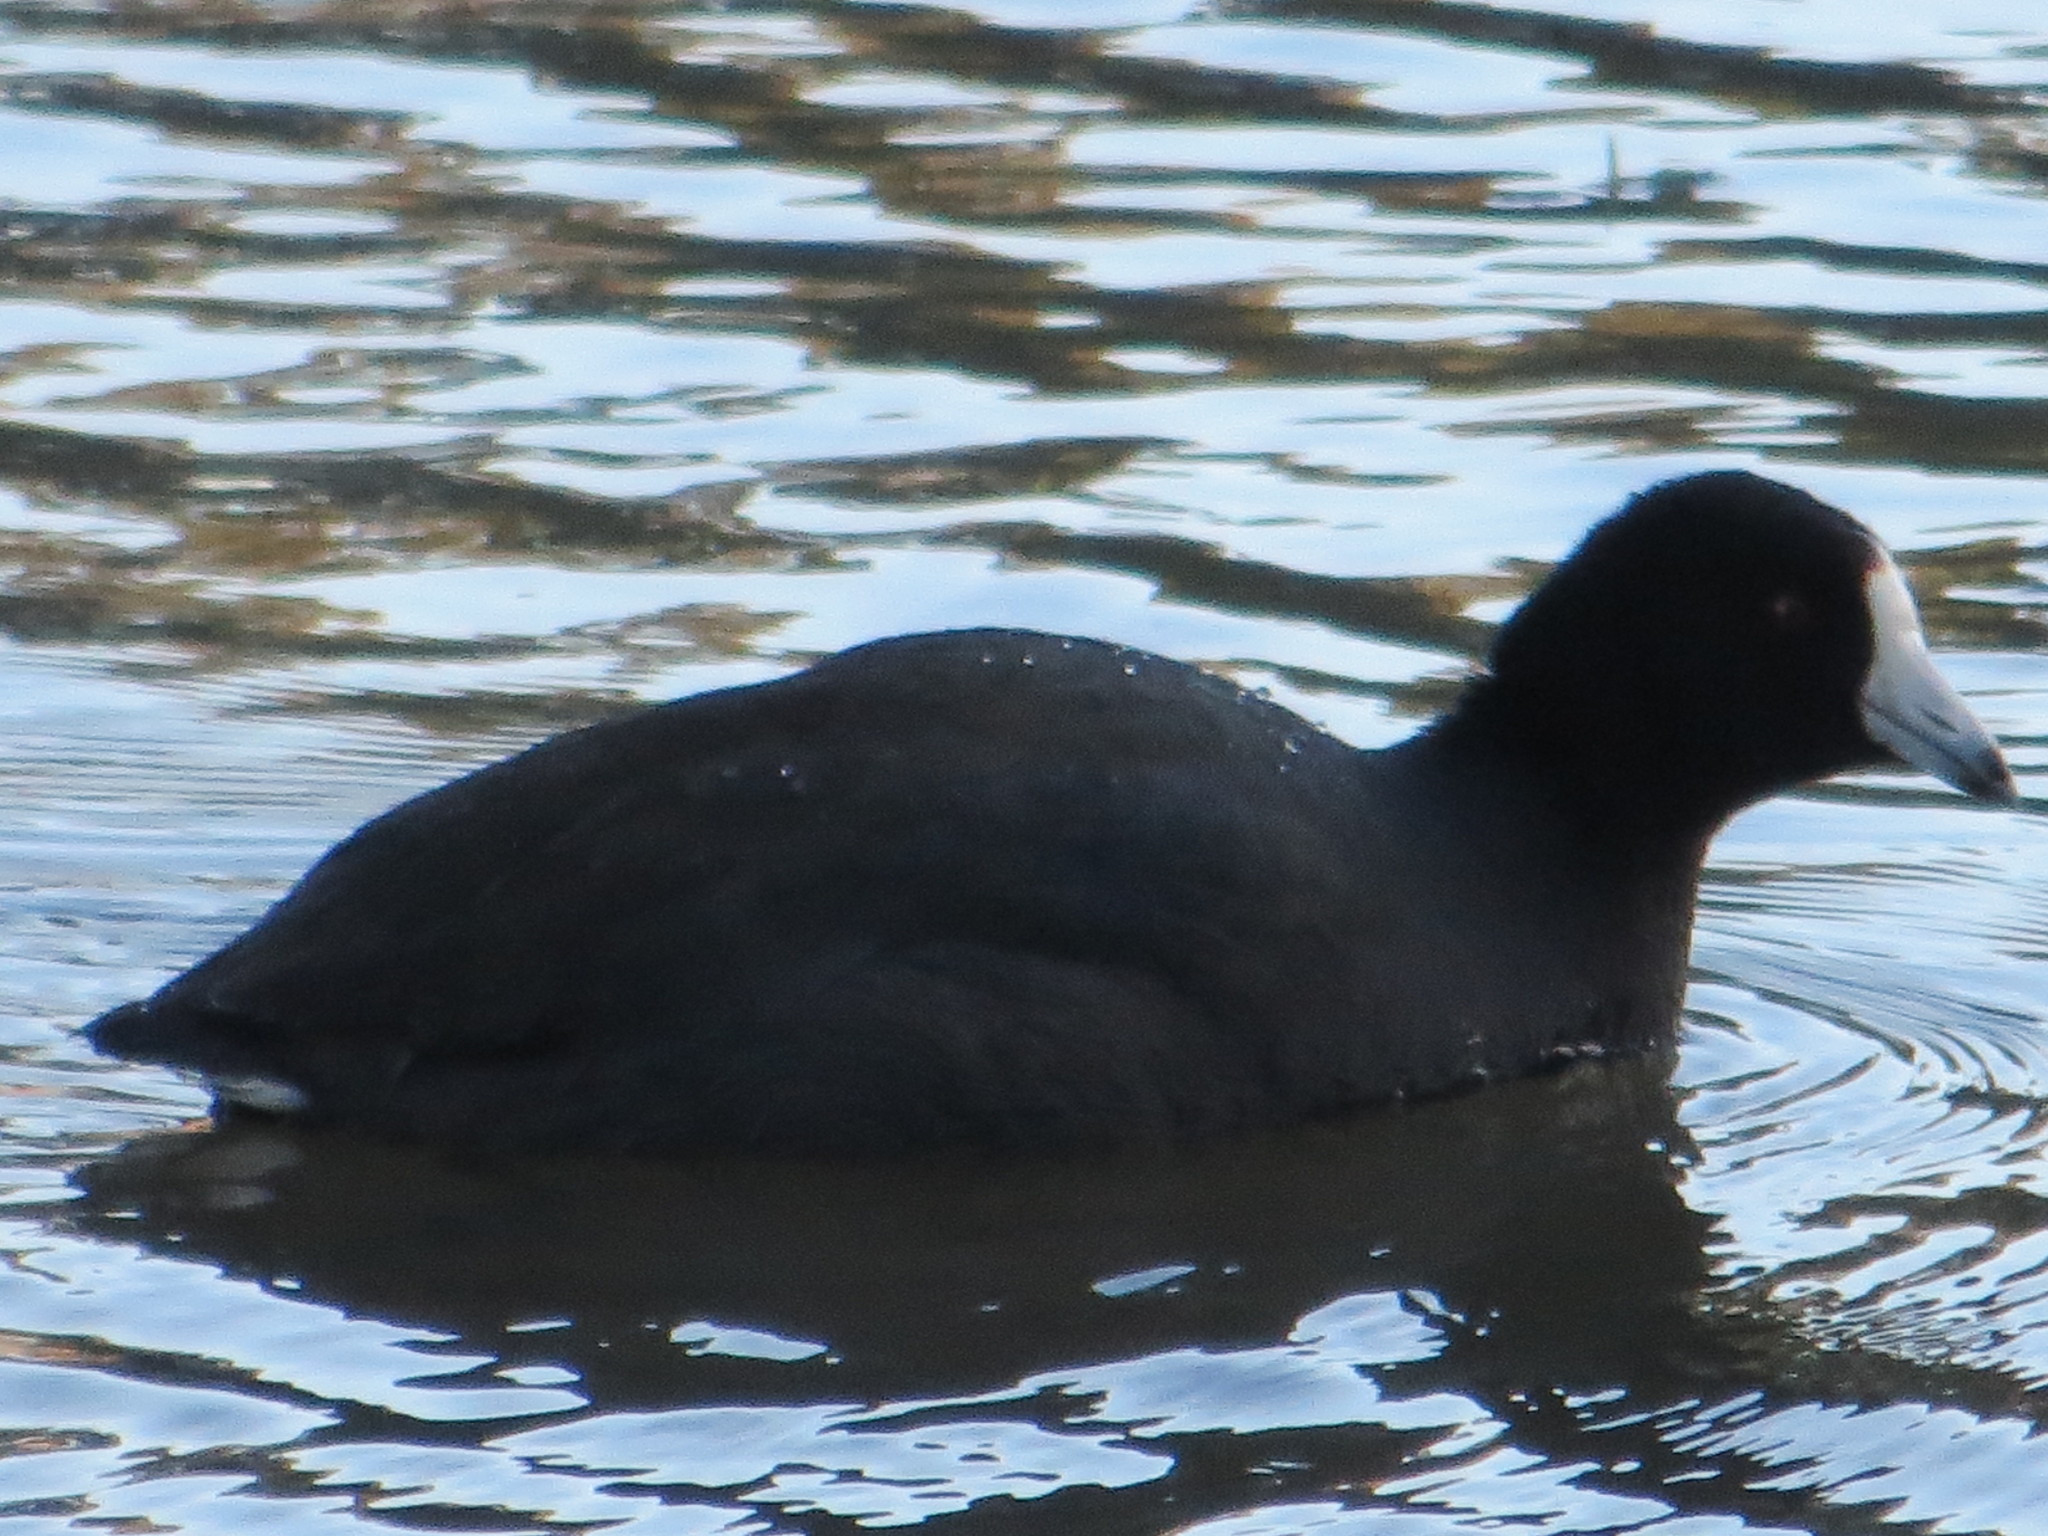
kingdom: Animalia
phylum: Chordata
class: Aves
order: Gruiformes
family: Rallidae
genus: Fulica
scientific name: Fulica americana
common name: American coot
